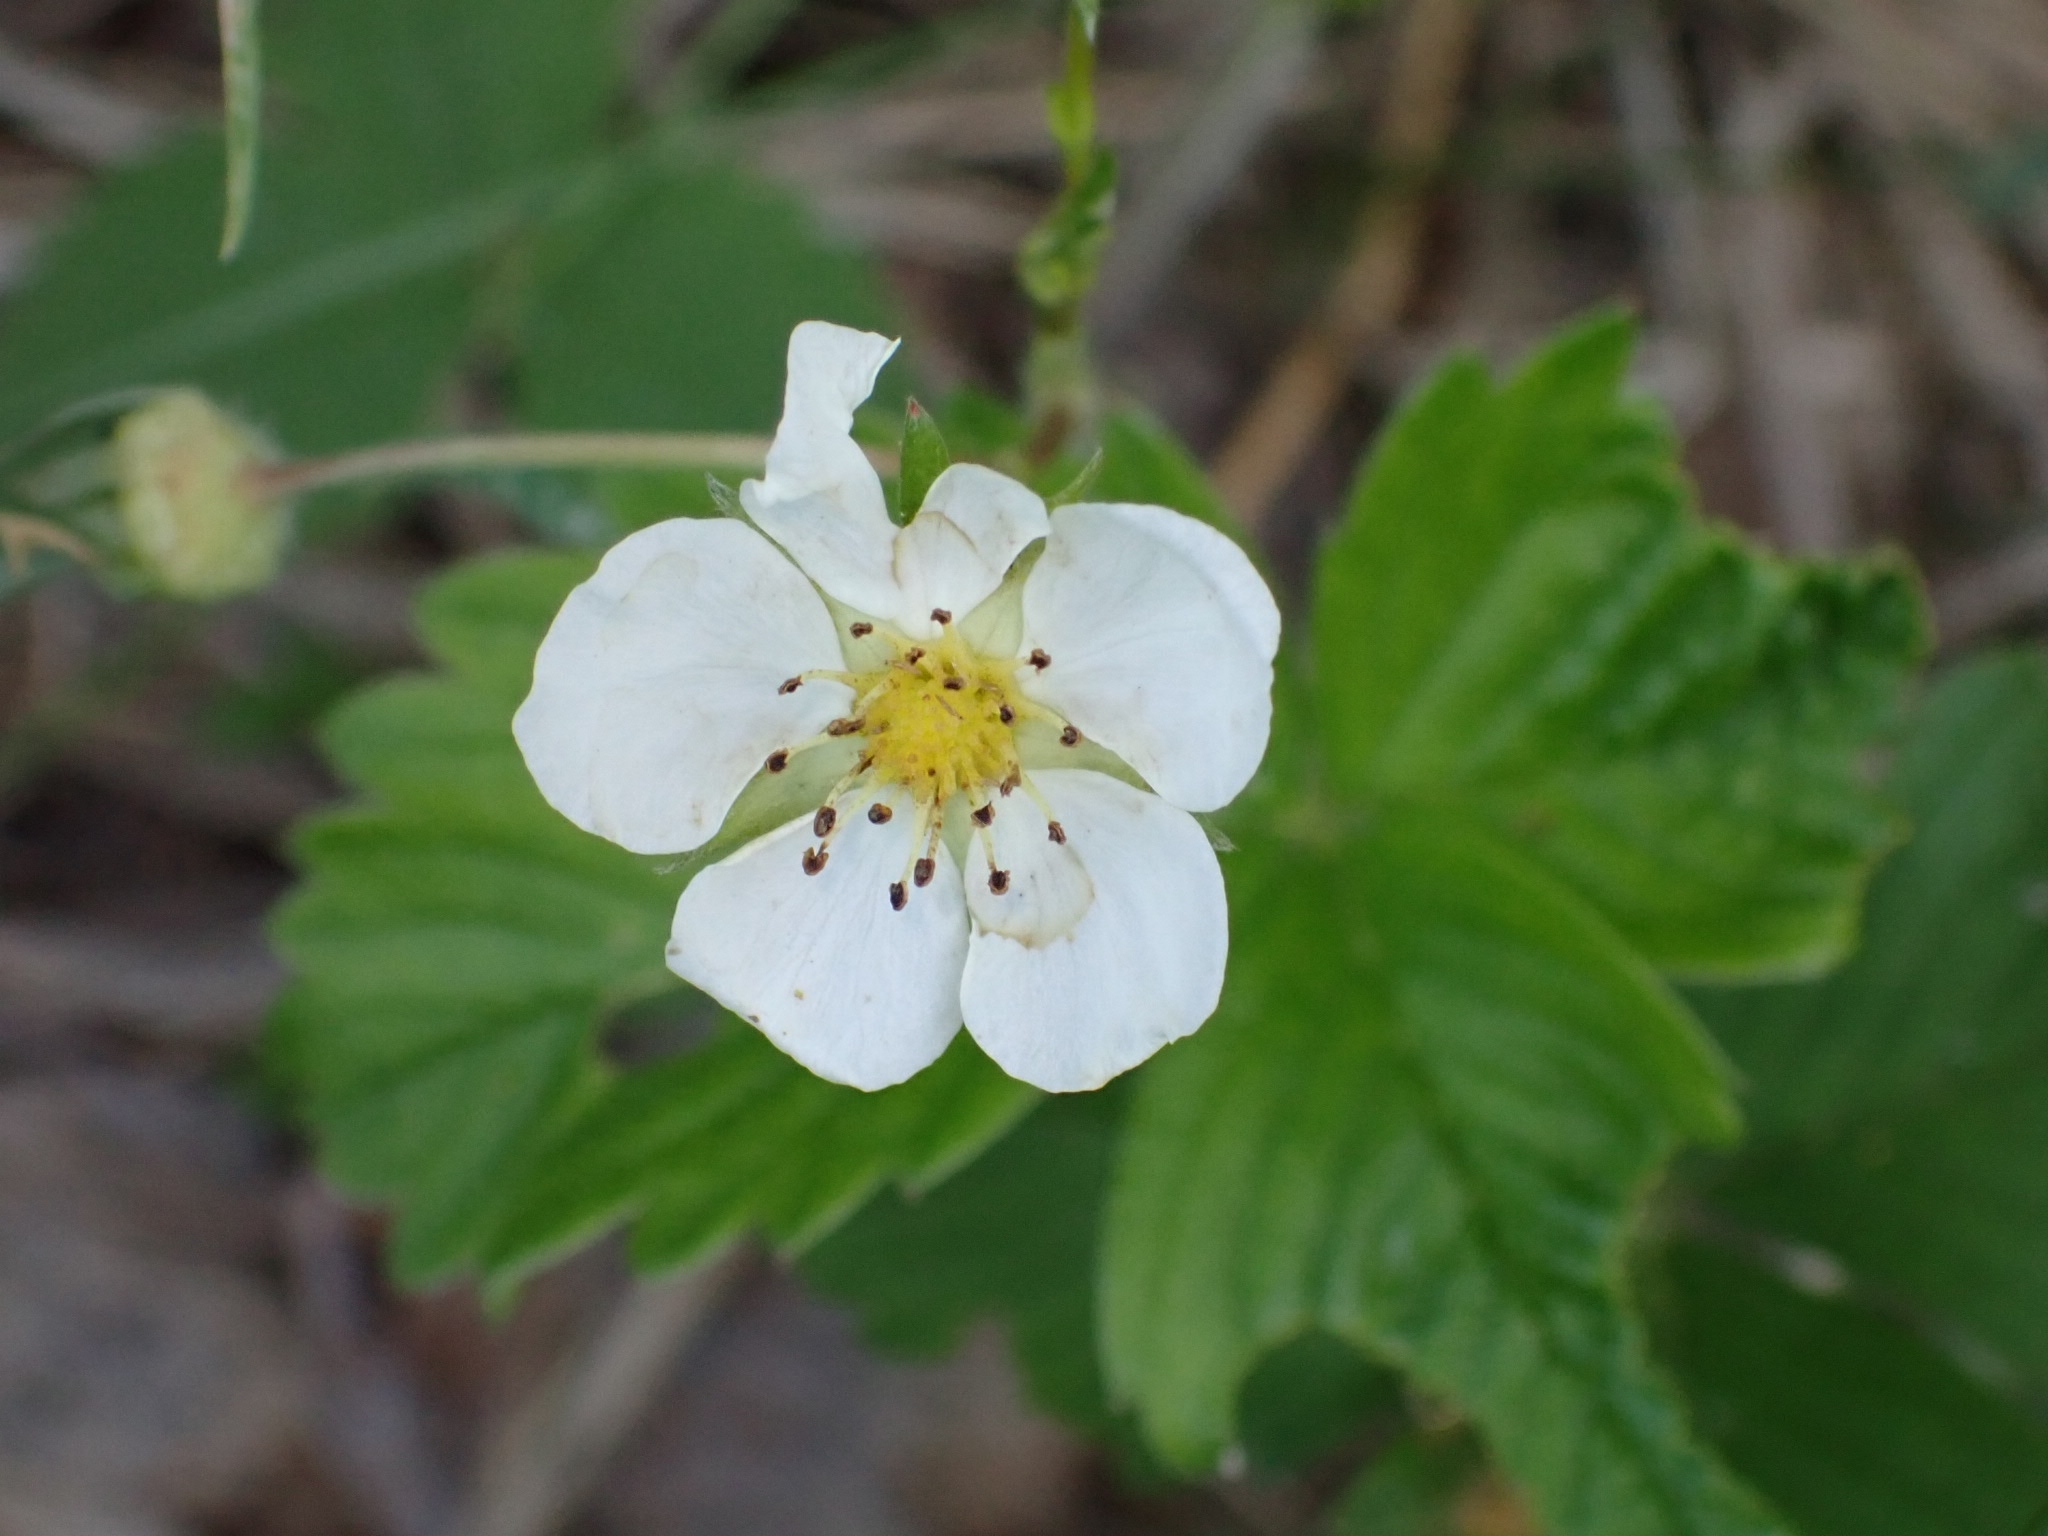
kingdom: Plantae
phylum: Tracheophyta
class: Magnoliopsida
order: Rosales
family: Rosaceae
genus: Fragaria
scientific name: Fragaria viridis
